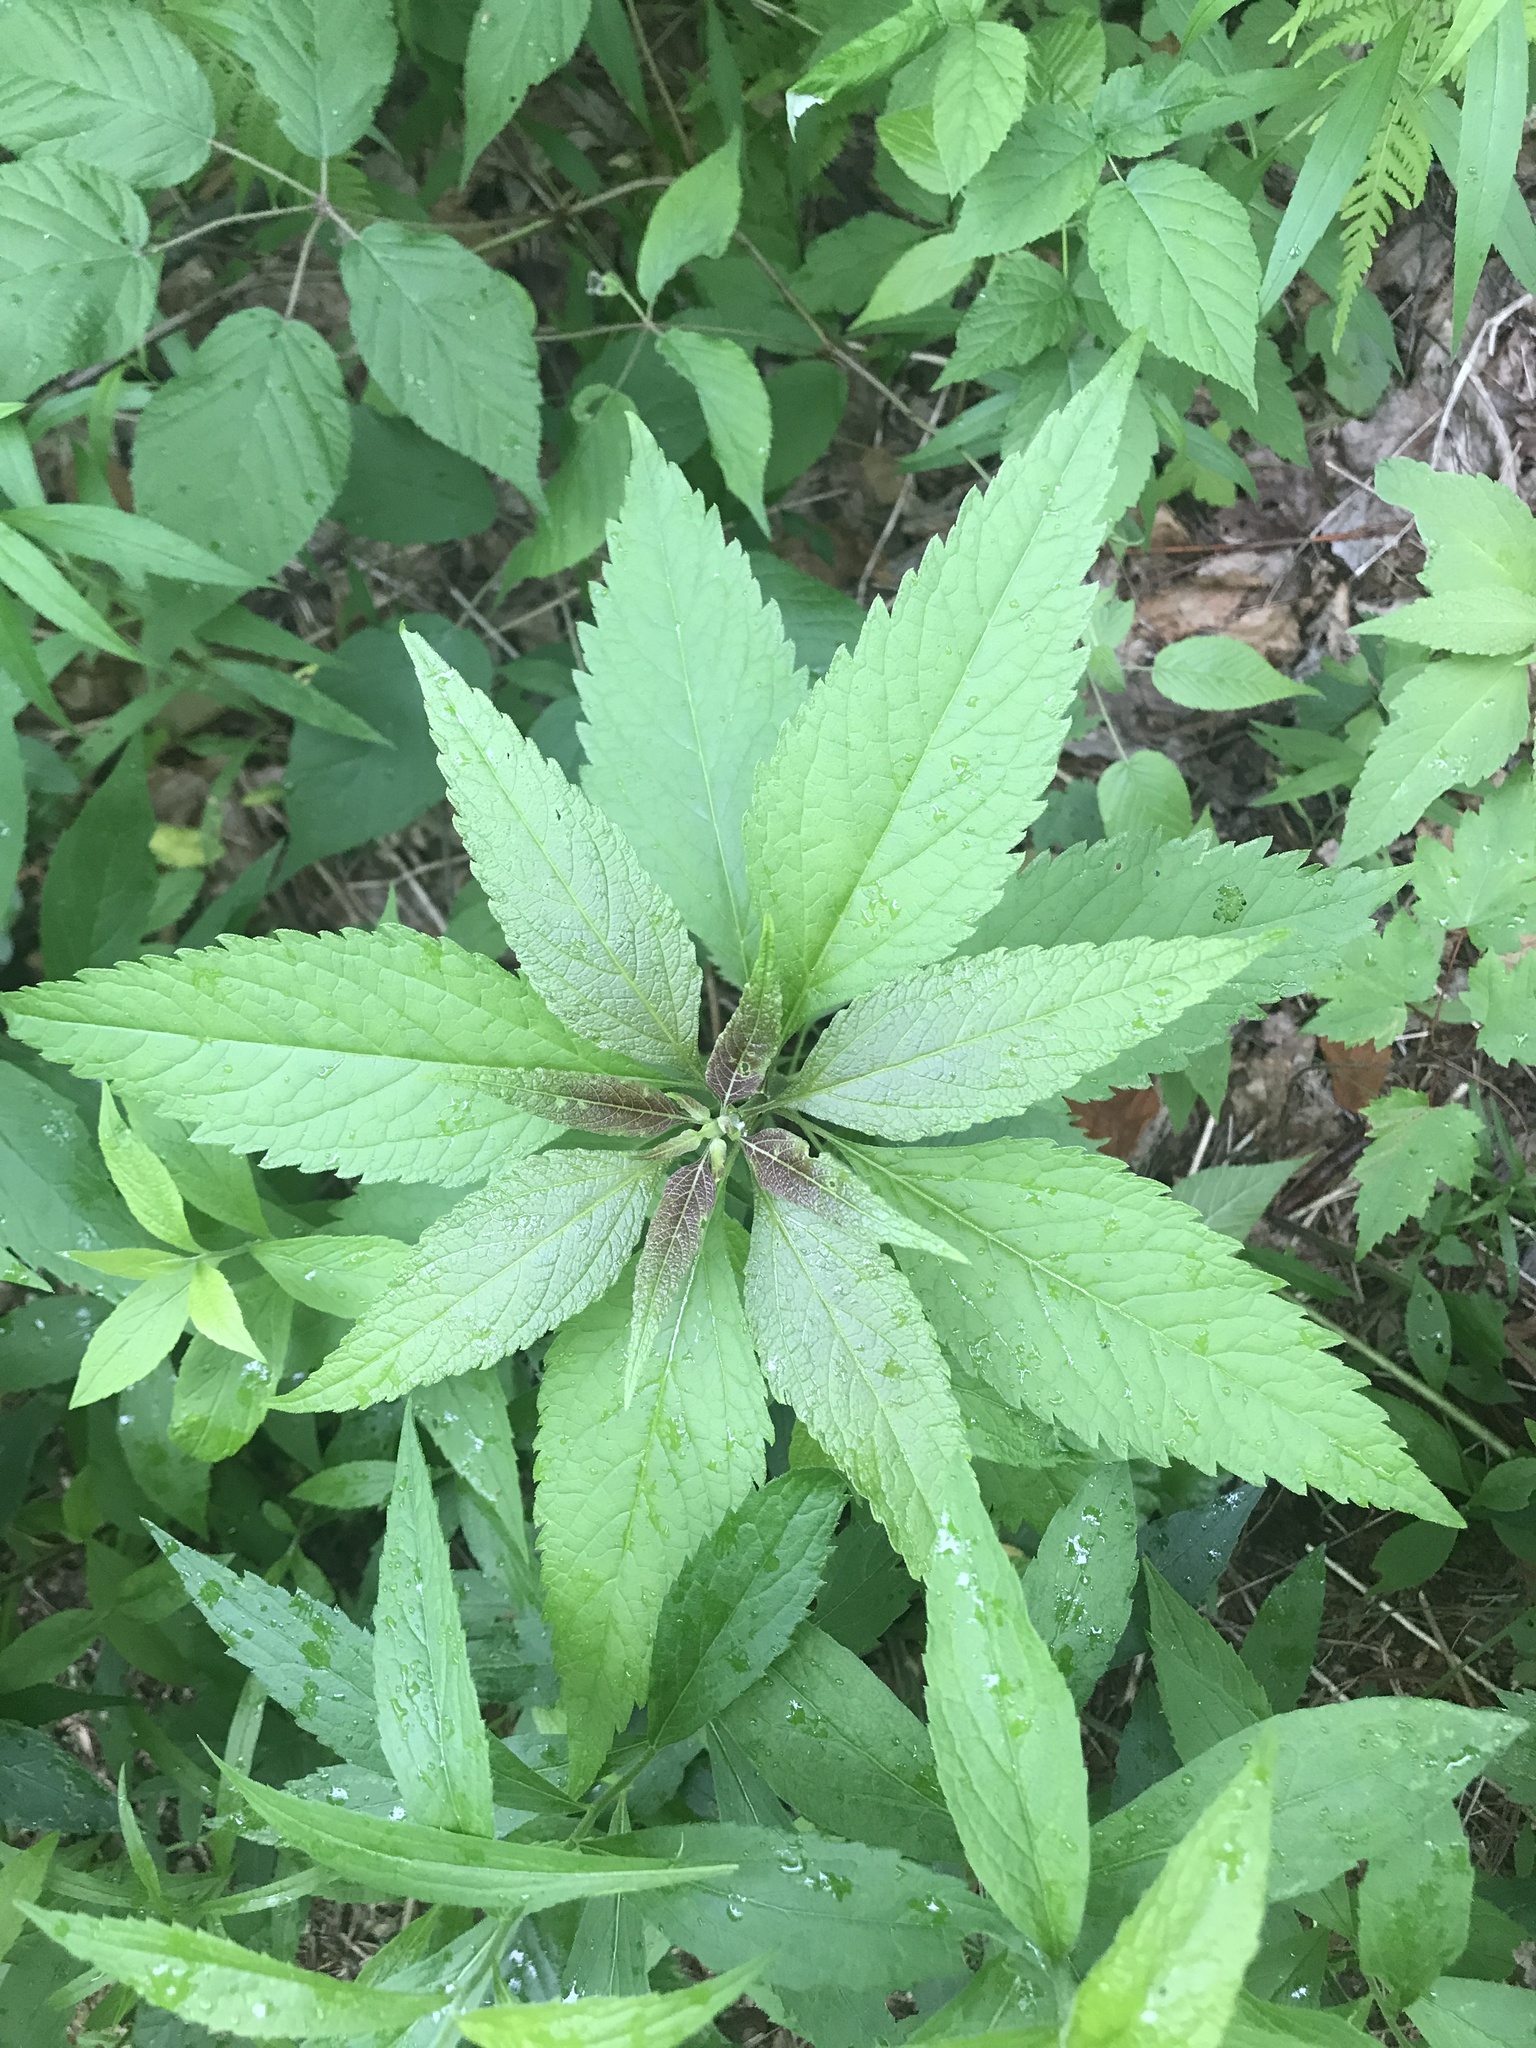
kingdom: Plantae
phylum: Tracheophyta
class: Magnoliopsida
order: Asterales
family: Asteraceae
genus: Eutrochium
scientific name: Eutrochium maculatum
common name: Spotted joe pye weed
